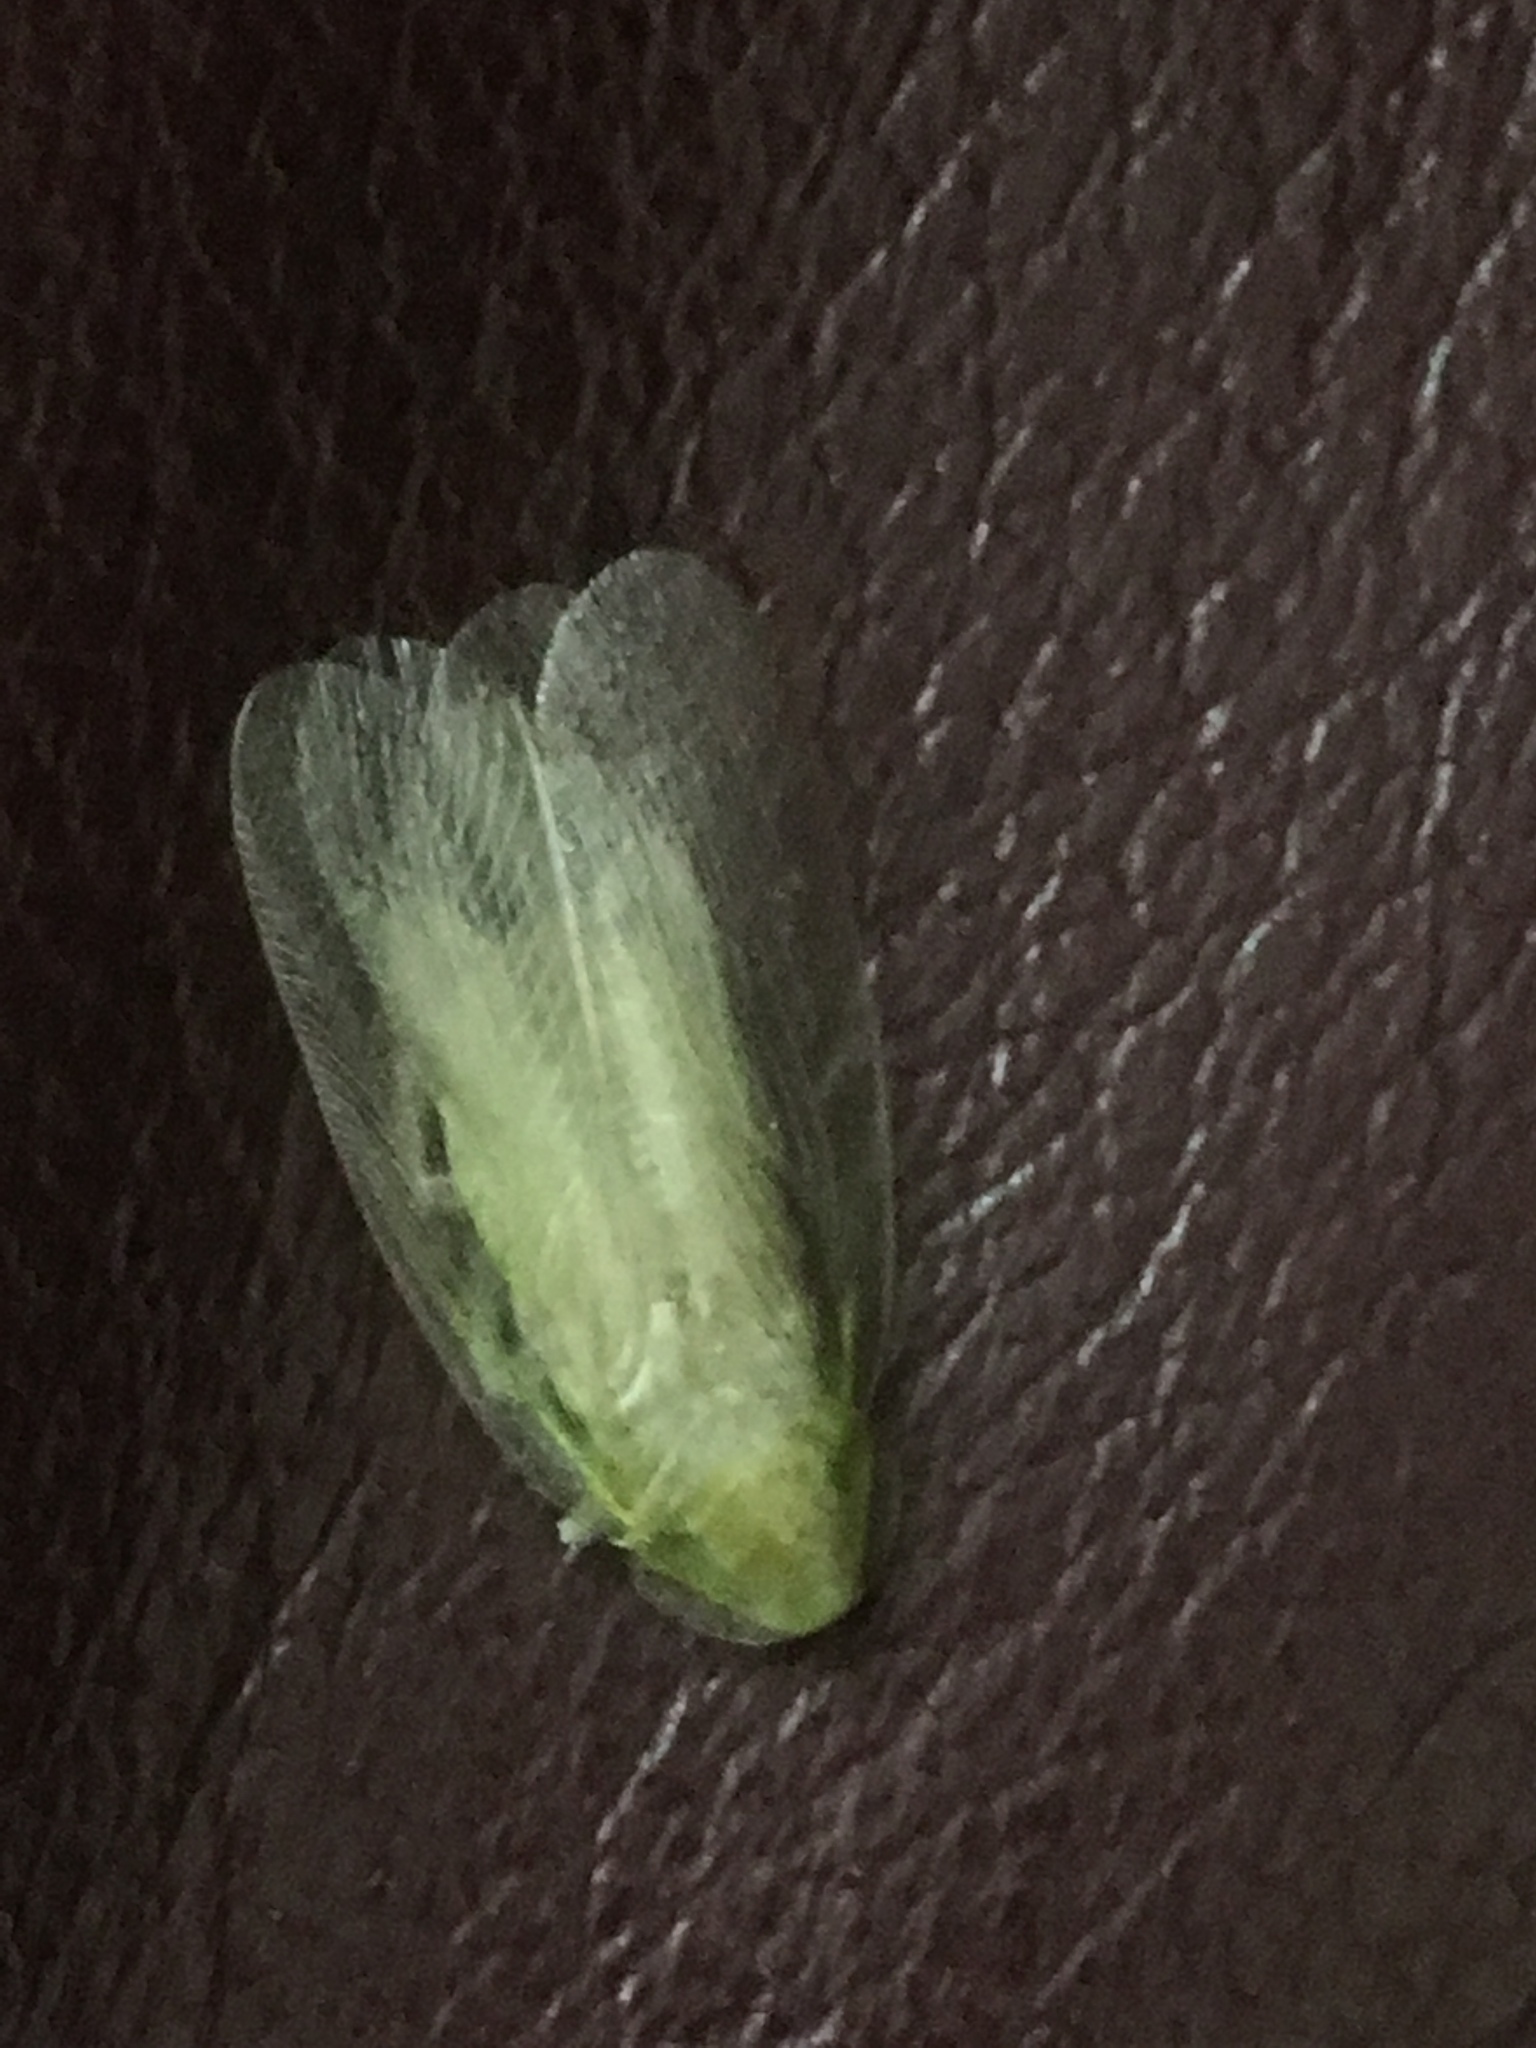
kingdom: Animalia
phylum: Arthropoda
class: Insecta
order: Blattodea
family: Blaberidae
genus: Panchlora
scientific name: Panchlora nivea
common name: Cuban cockroach
